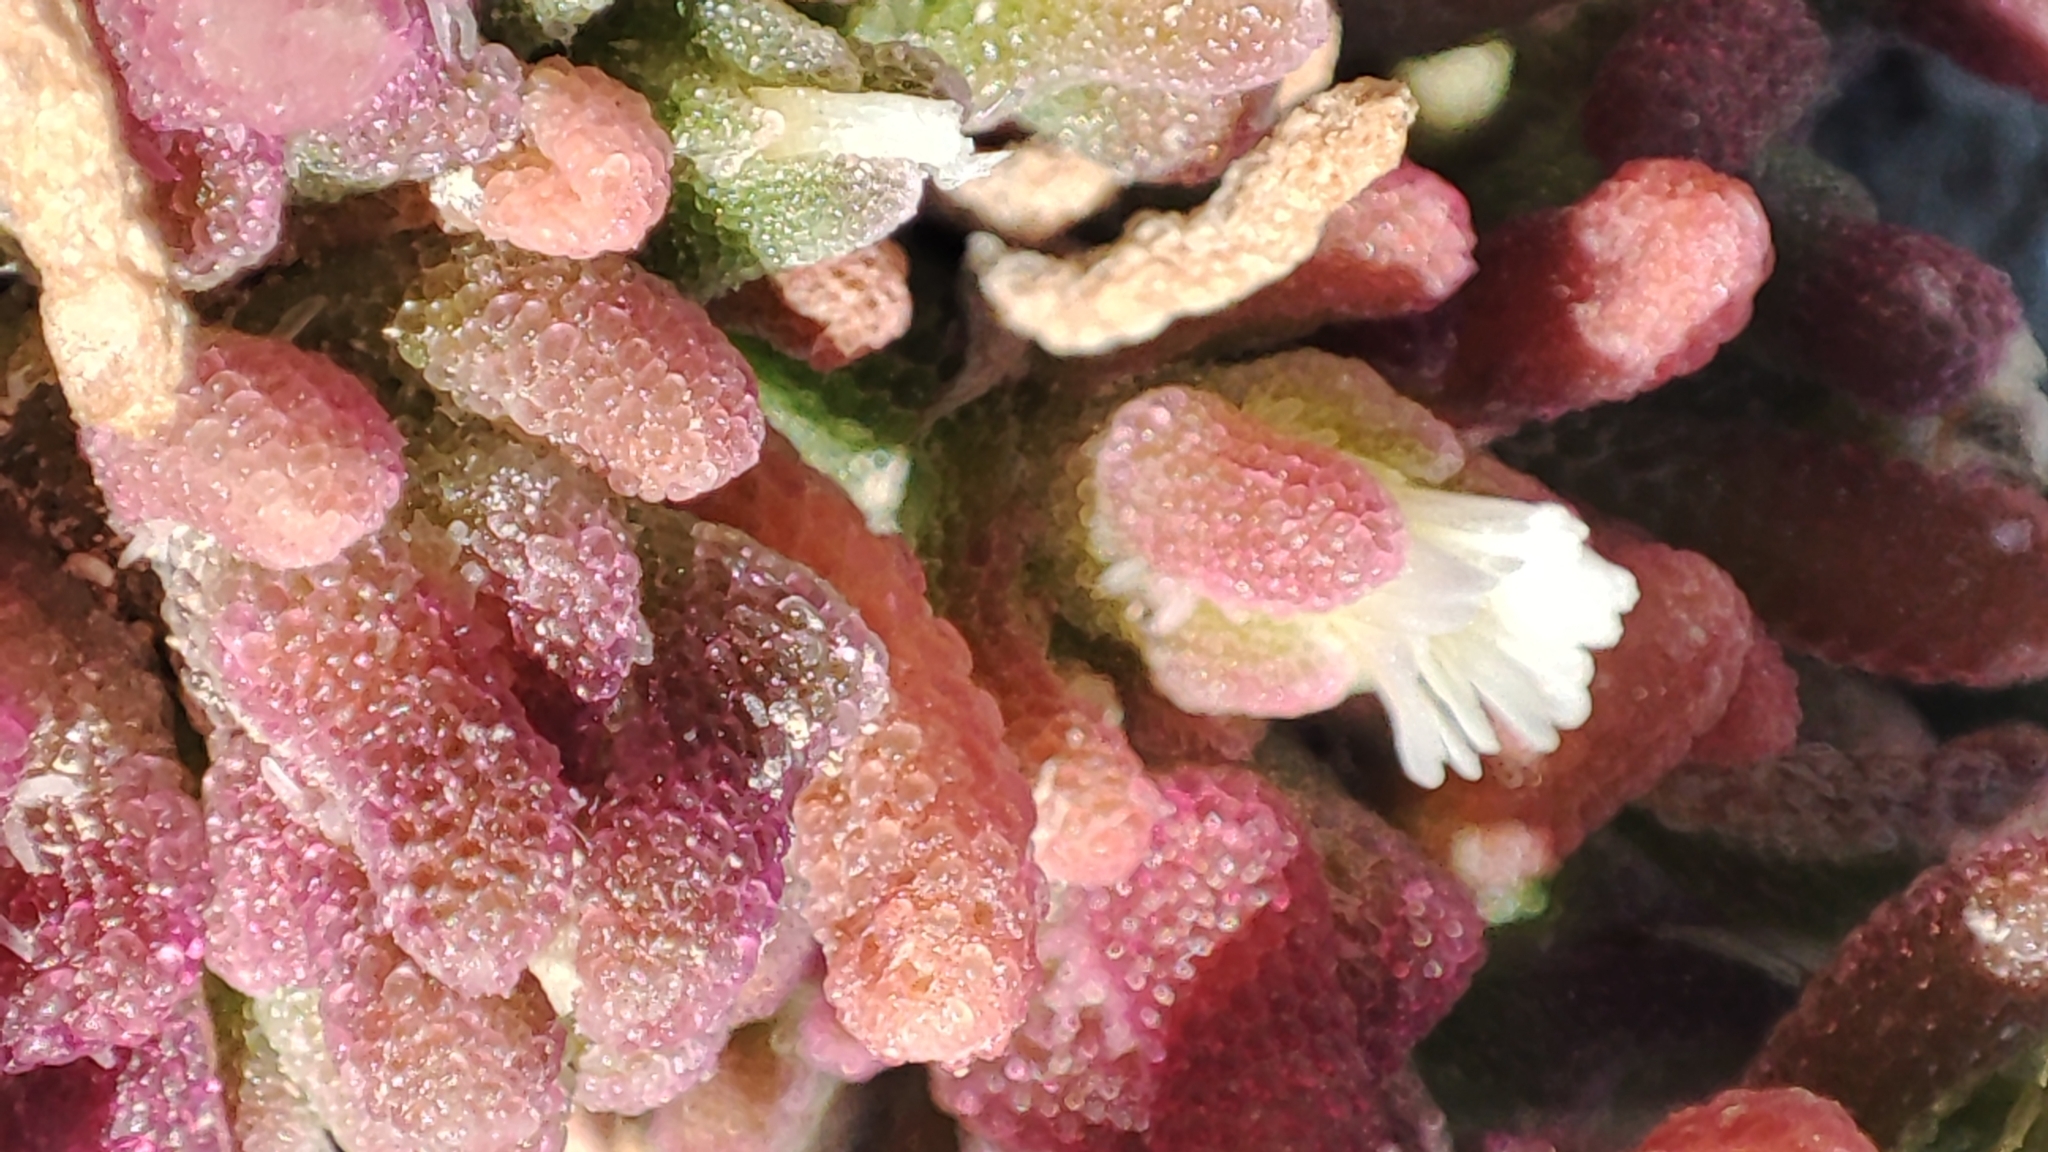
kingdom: Plantae
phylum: Tracheophyta
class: Magnoliopsida
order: Caryophyllales
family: Aizoaceae
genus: Mesembryanthemum
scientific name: Mesembryanthemum nodiflorum
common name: Slenderleaf iceplant
